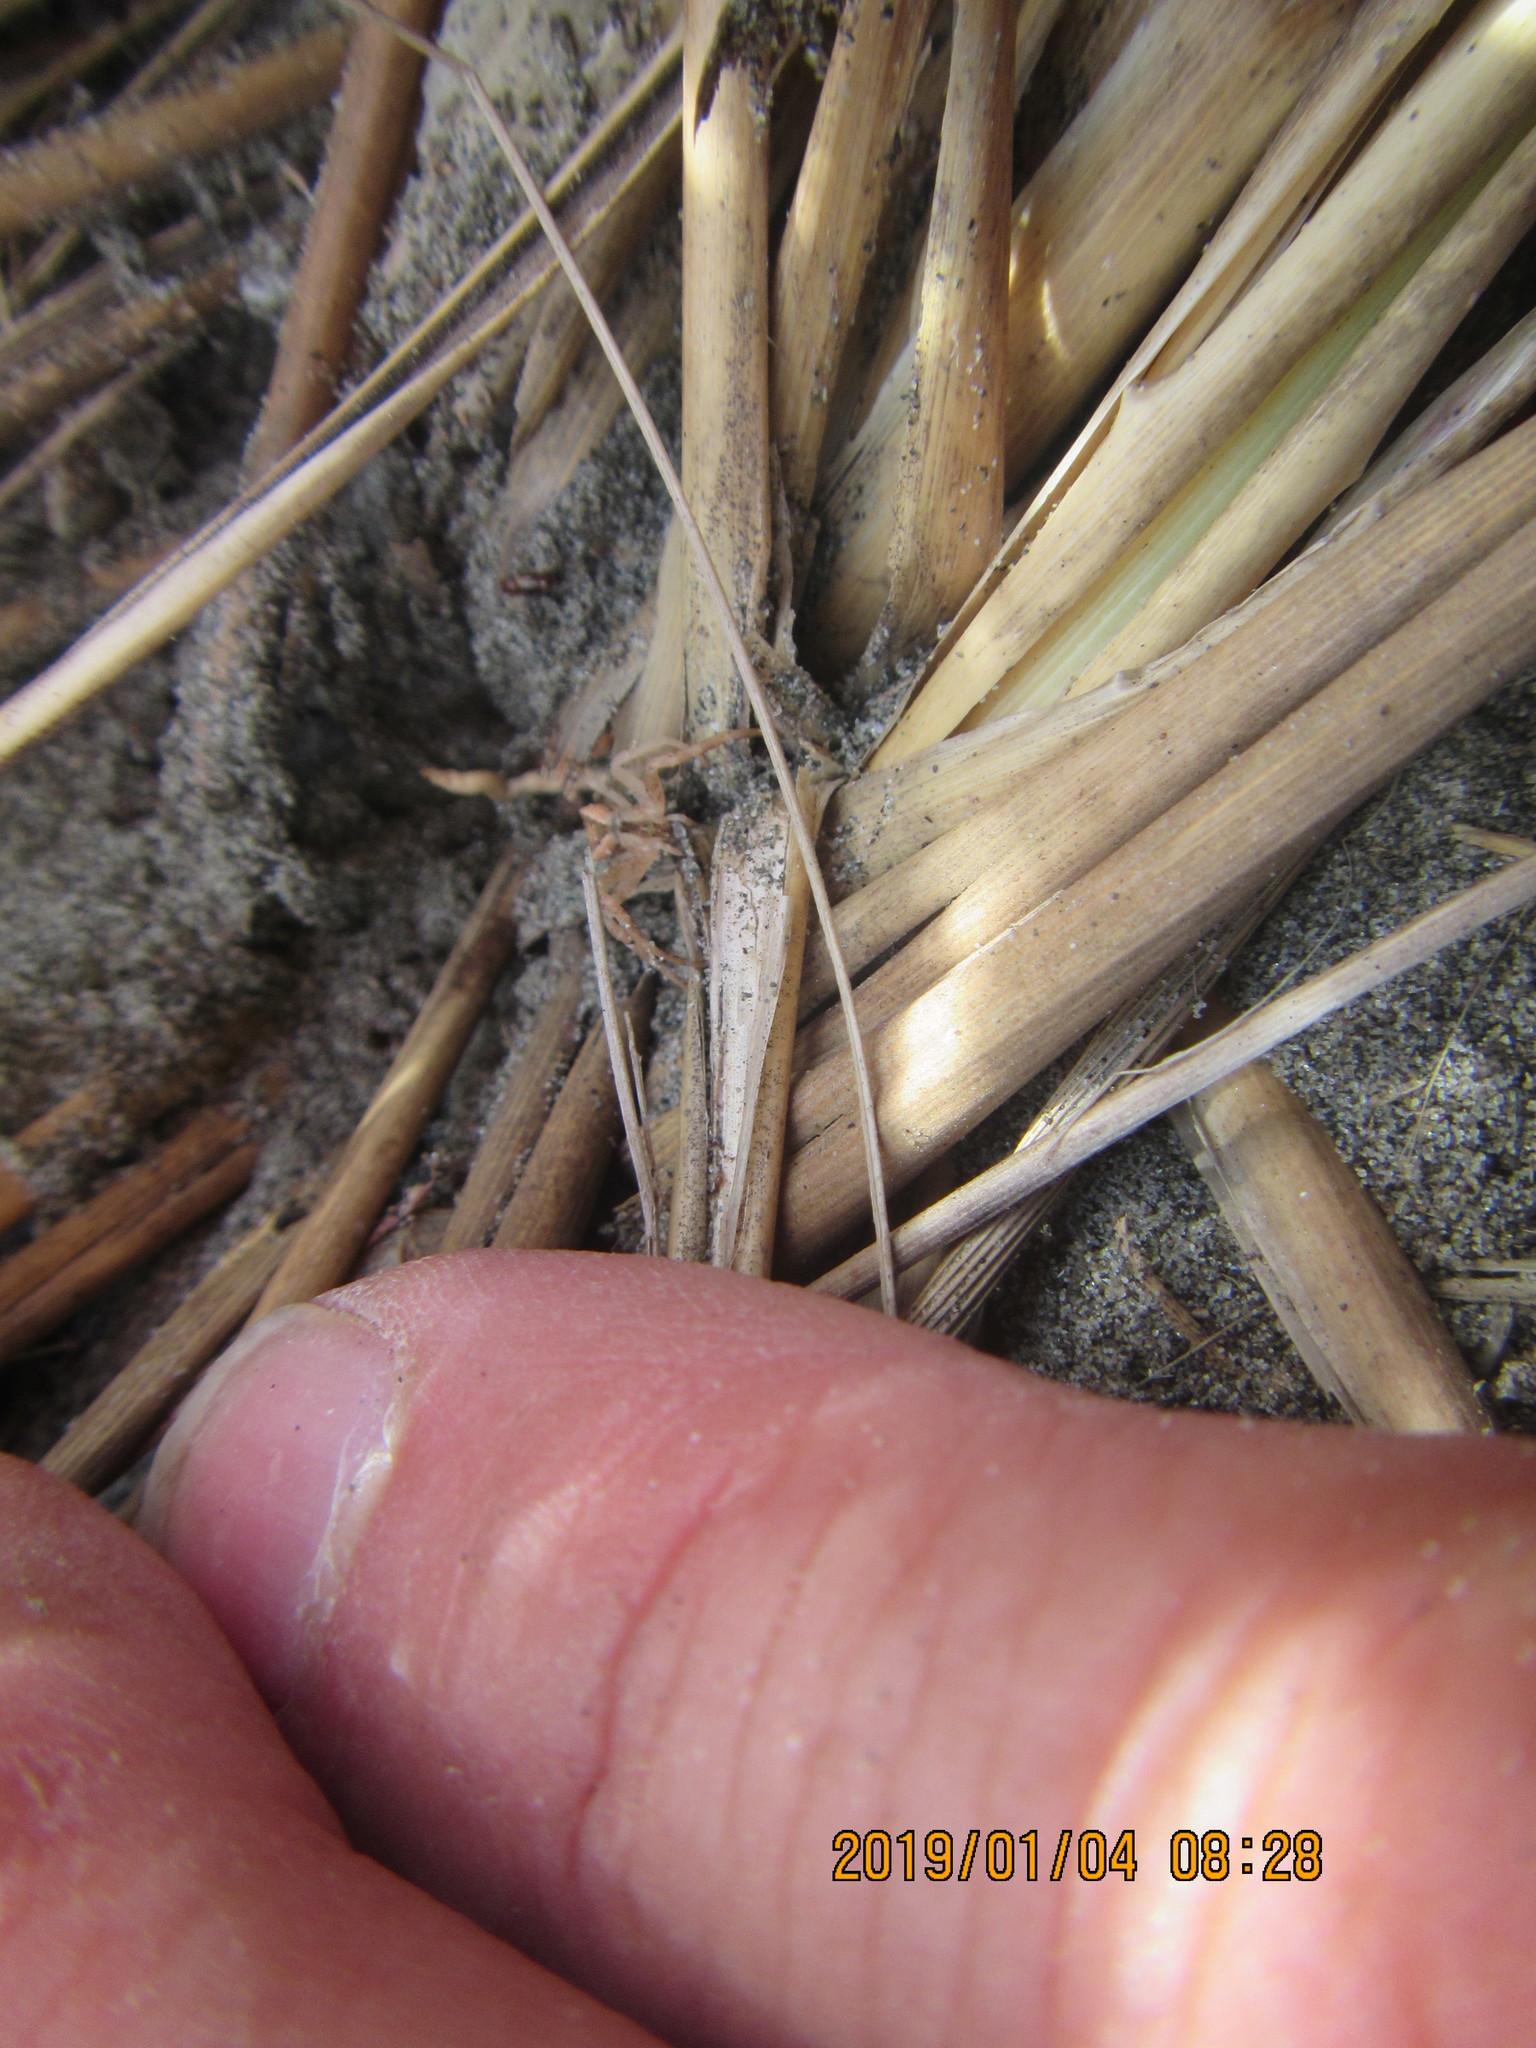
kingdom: Animalia
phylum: Arthropoda
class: Arachnida
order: Araneae
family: Thomisidae
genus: Sidymella
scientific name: Sidymella trapezia
